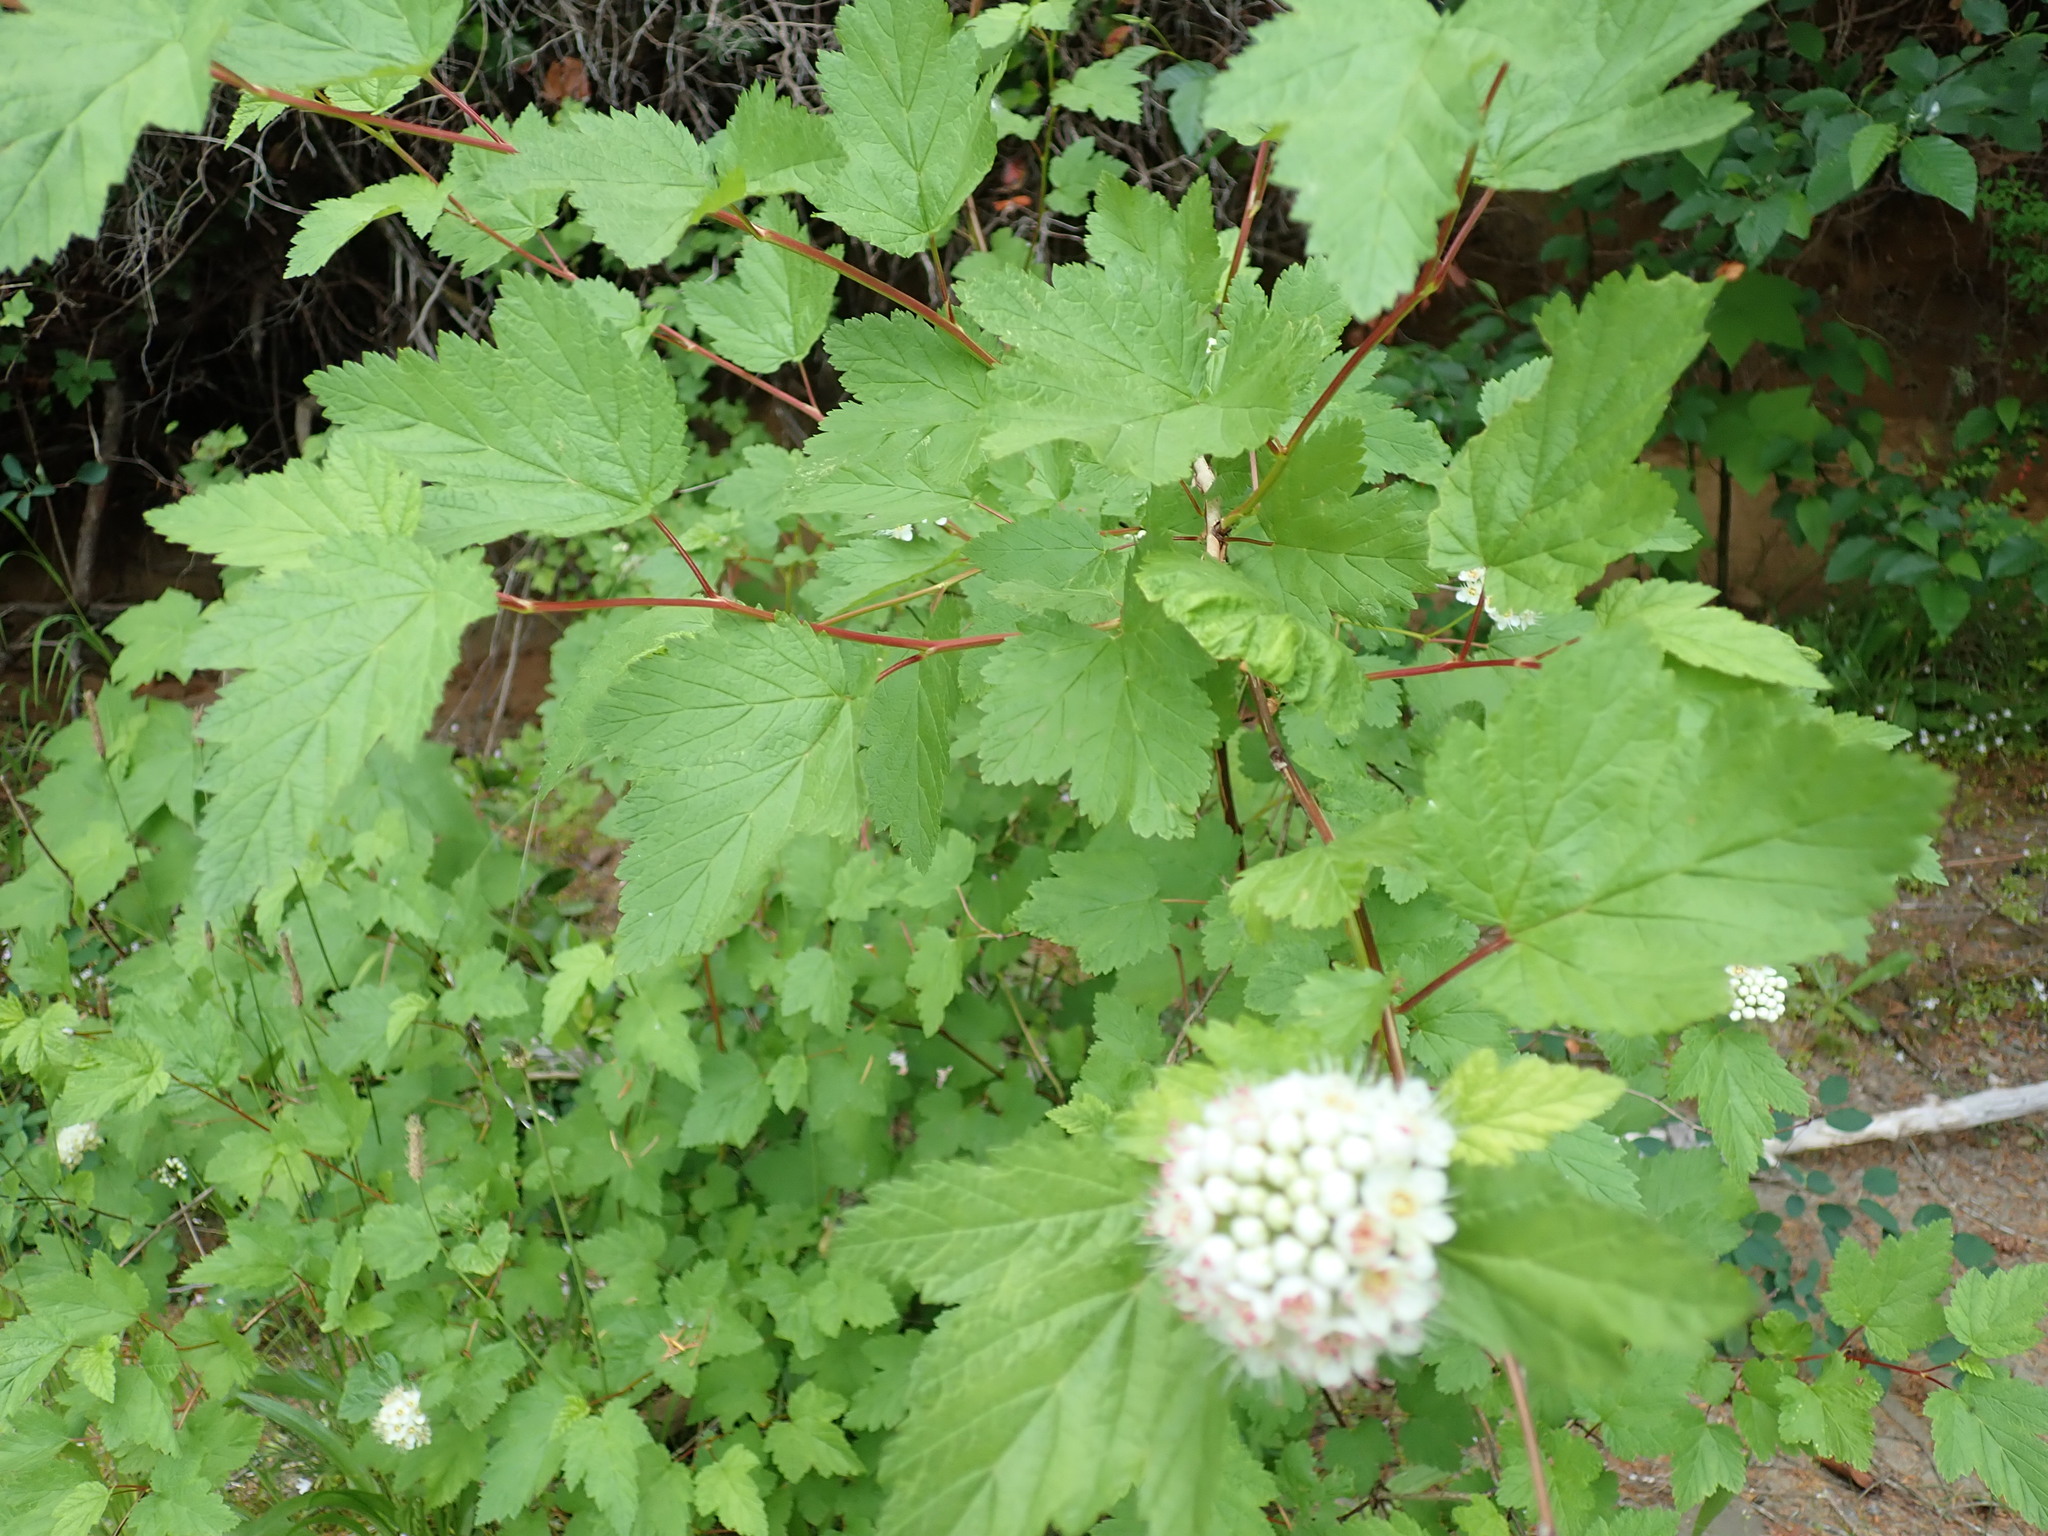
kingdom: Plantae
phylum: Tracheophyta
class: Magnoliopsida
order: Rosales
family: Rosaceae
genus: Physocarpus
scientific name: Physocarpus capitatus
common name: Pacific ninebark
